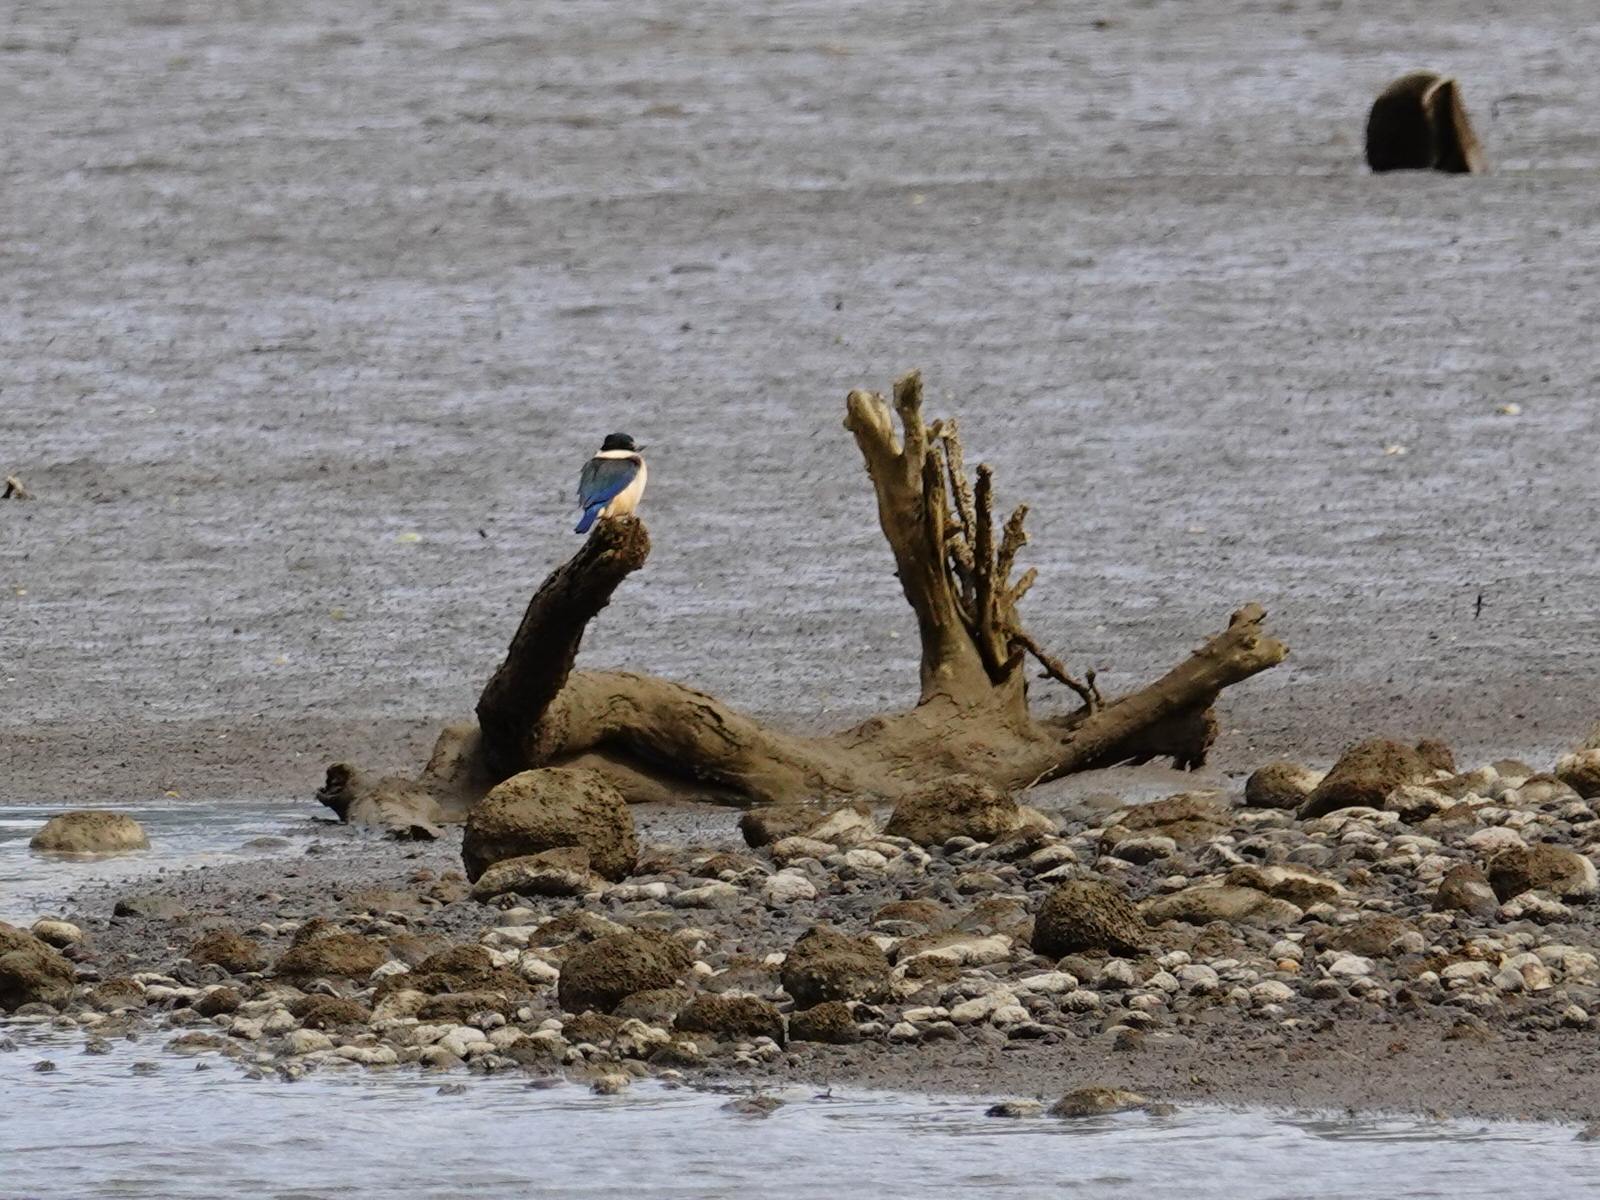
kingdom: Animalia
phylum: Chordata
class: Aves
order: Coraciiformes
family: Alcedinidae
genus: Todiramphus
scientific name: Todiramphus sanctus
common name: Sacred kingfisher
